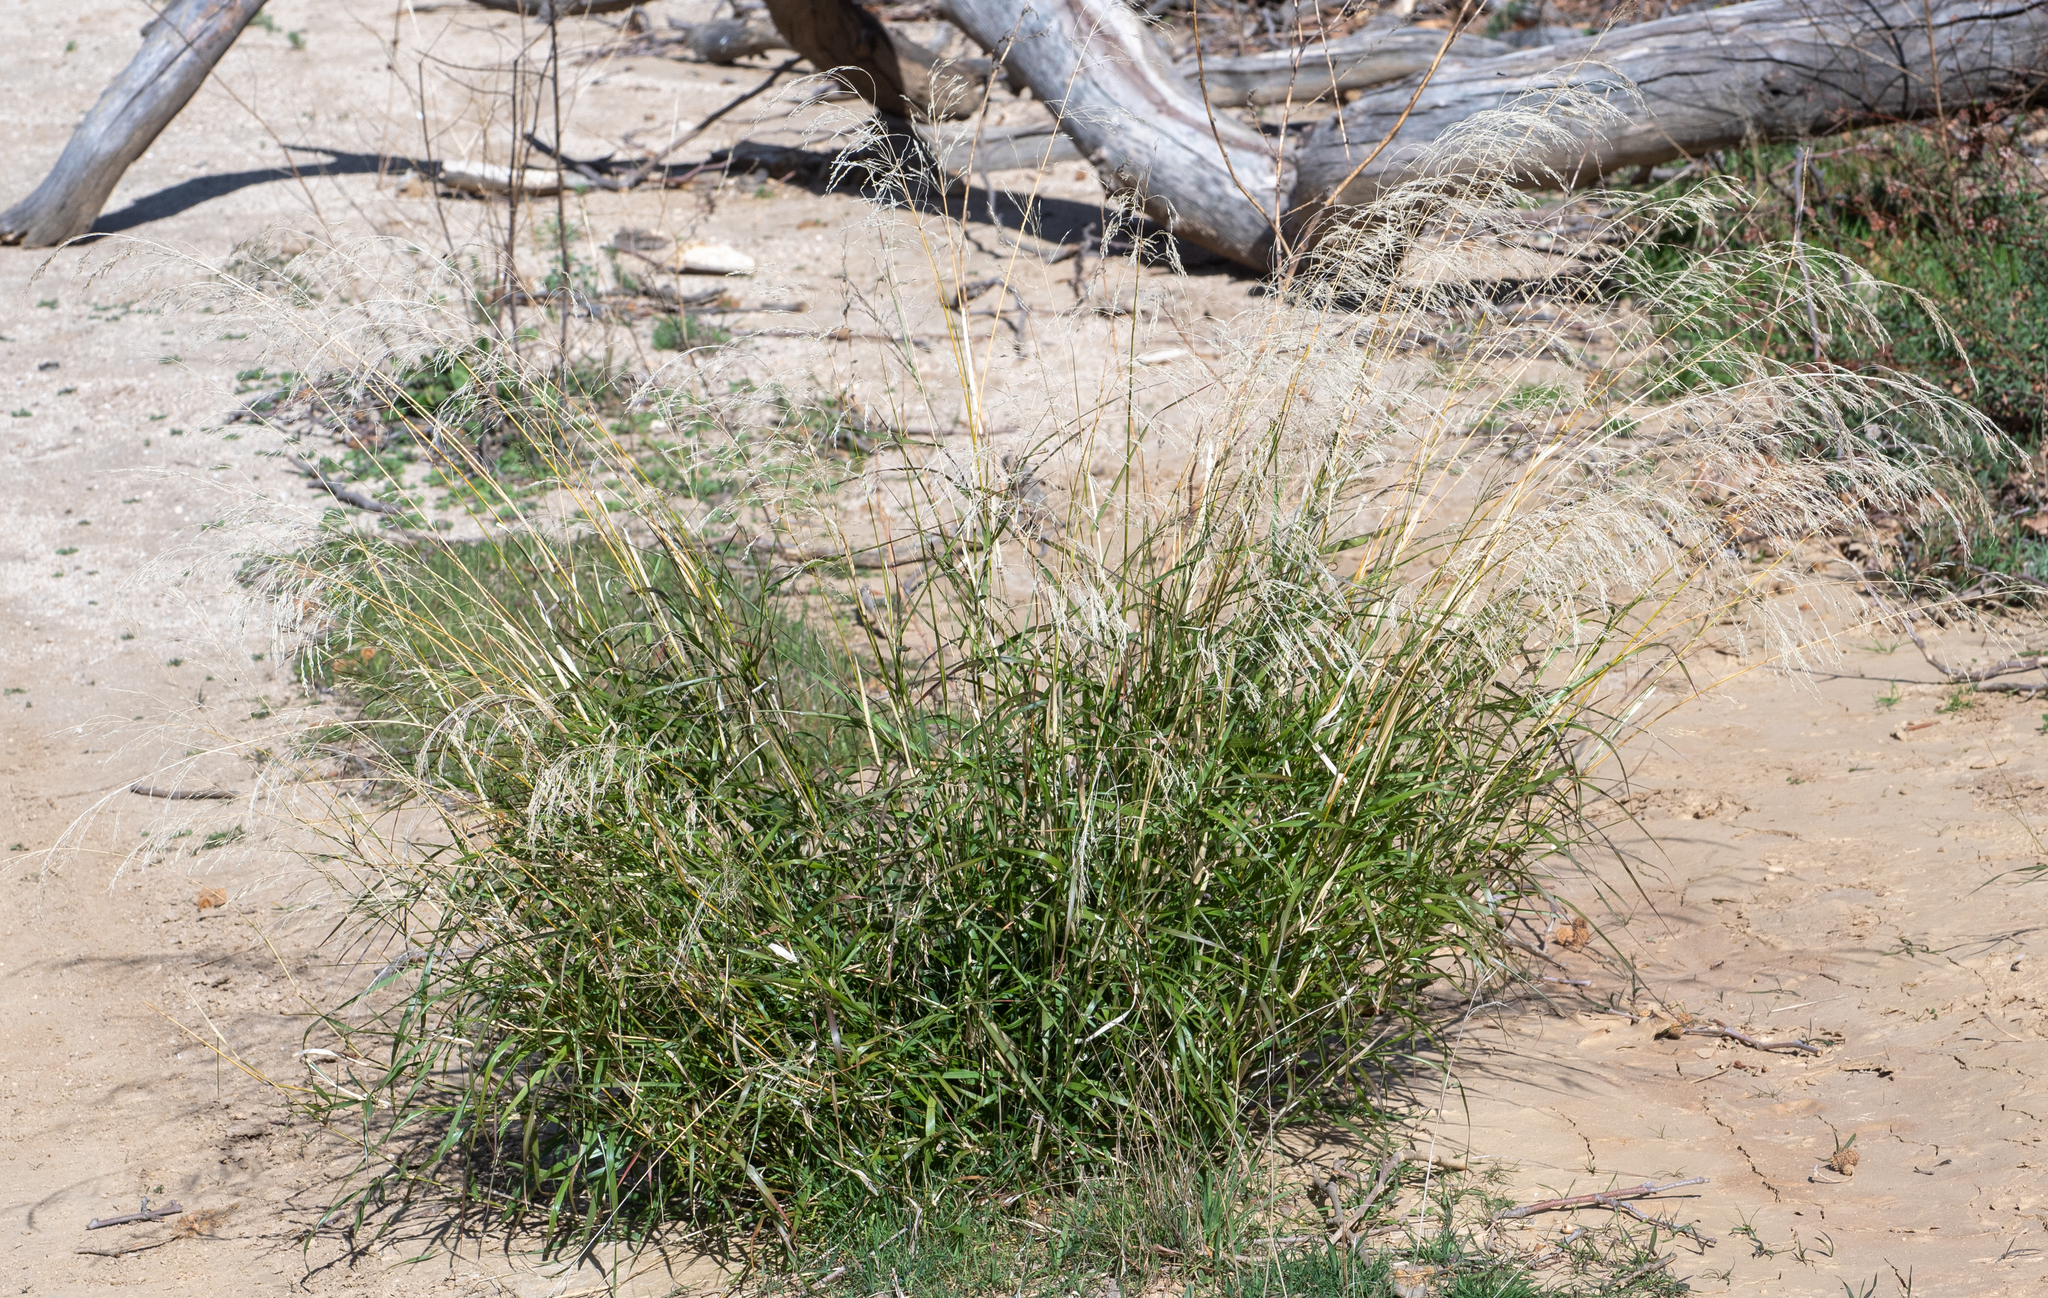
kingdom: Plantae
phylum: Tracheophyta
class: Liliopsida
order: Poales
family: Poaceae
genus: Oloptum
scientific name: Oloptum miliaceum
